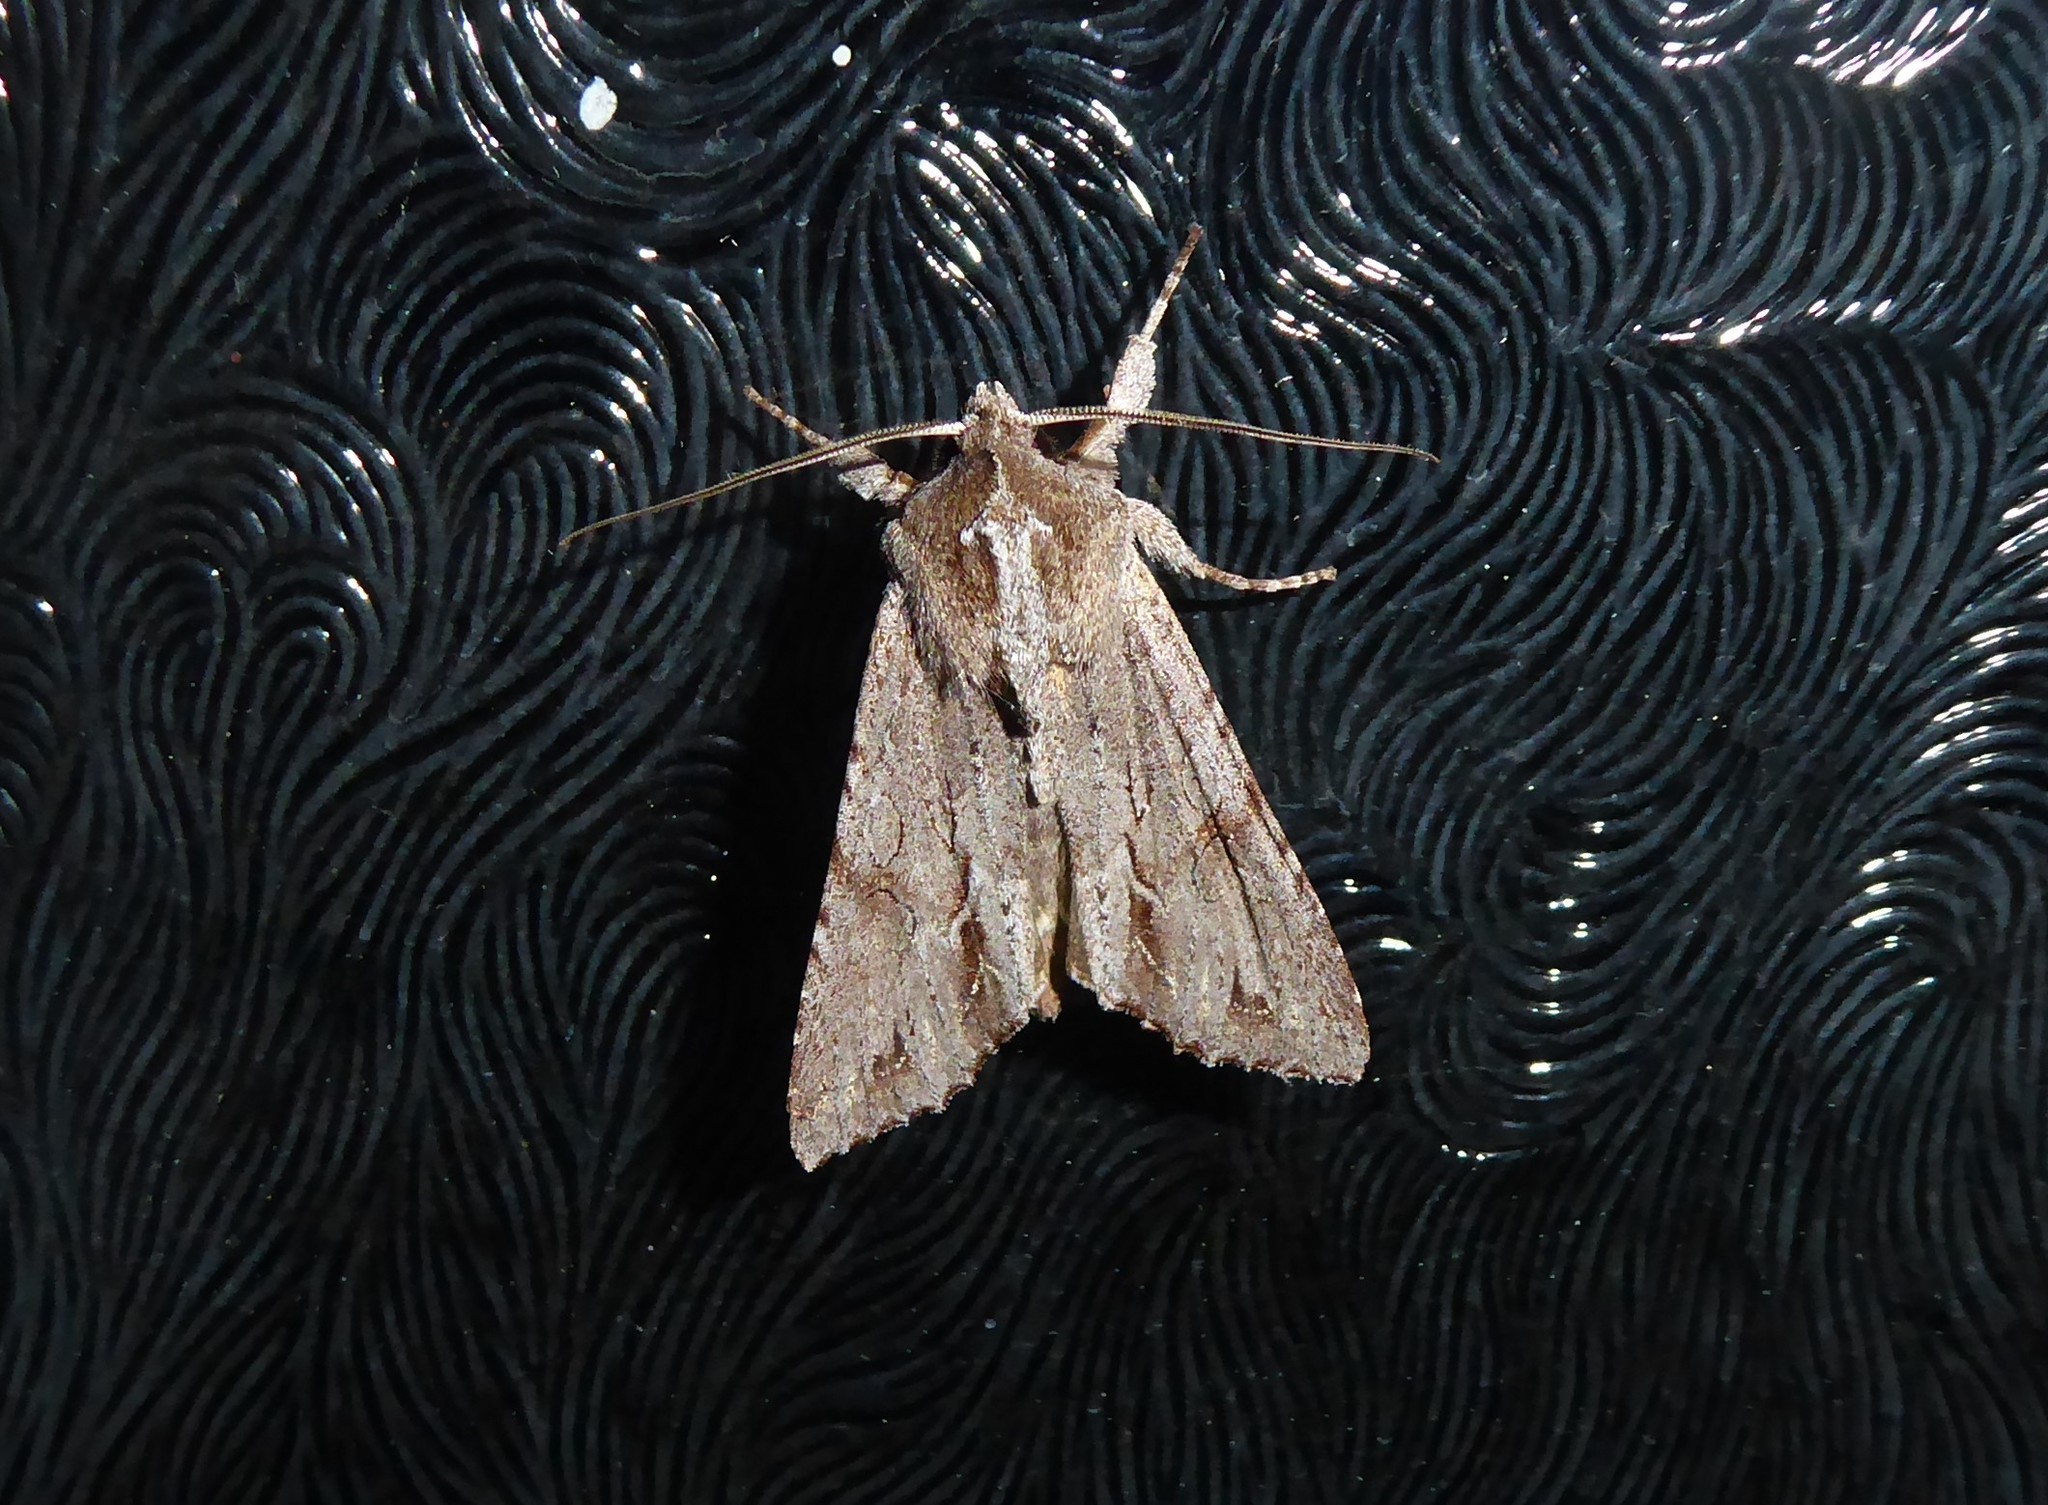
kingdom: Animalia
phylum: Arthropoda
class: Insecta
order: Lepidoptera
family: Noctuidae
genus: Ichneutica
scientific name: Ichneutica
